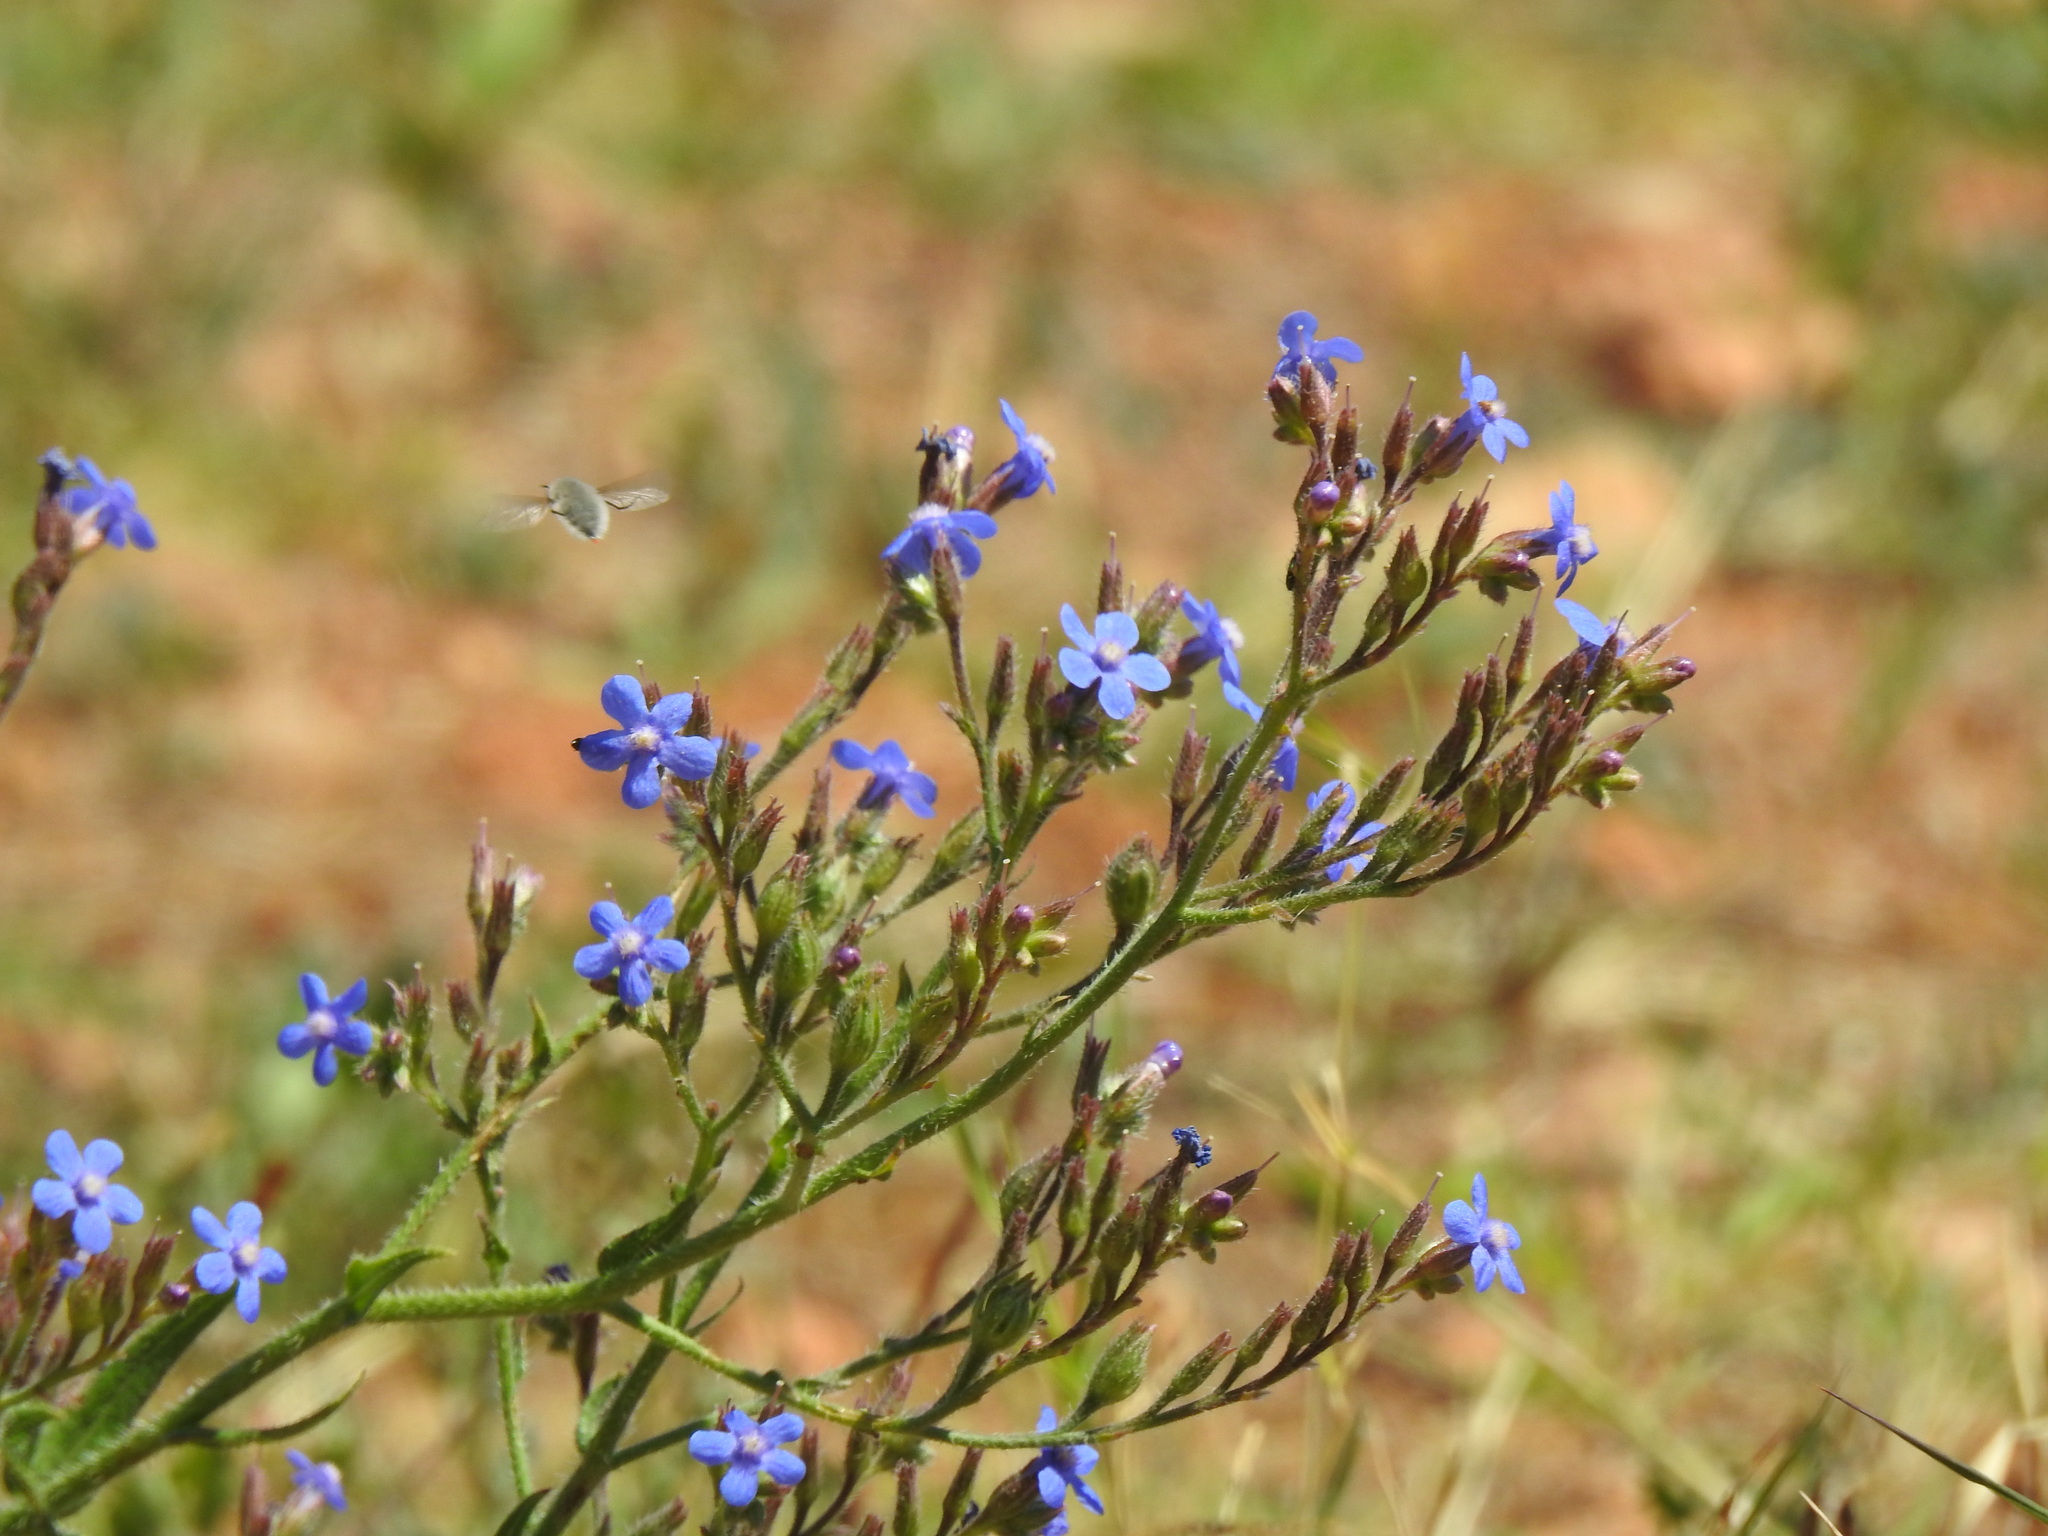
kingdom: Plantae
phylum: Tracheophyta
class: Magnoliopsida
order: Boraginales
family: Boraginaceae
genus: Anchusa
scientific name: Anchusa azurea
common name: Garden anchusa
